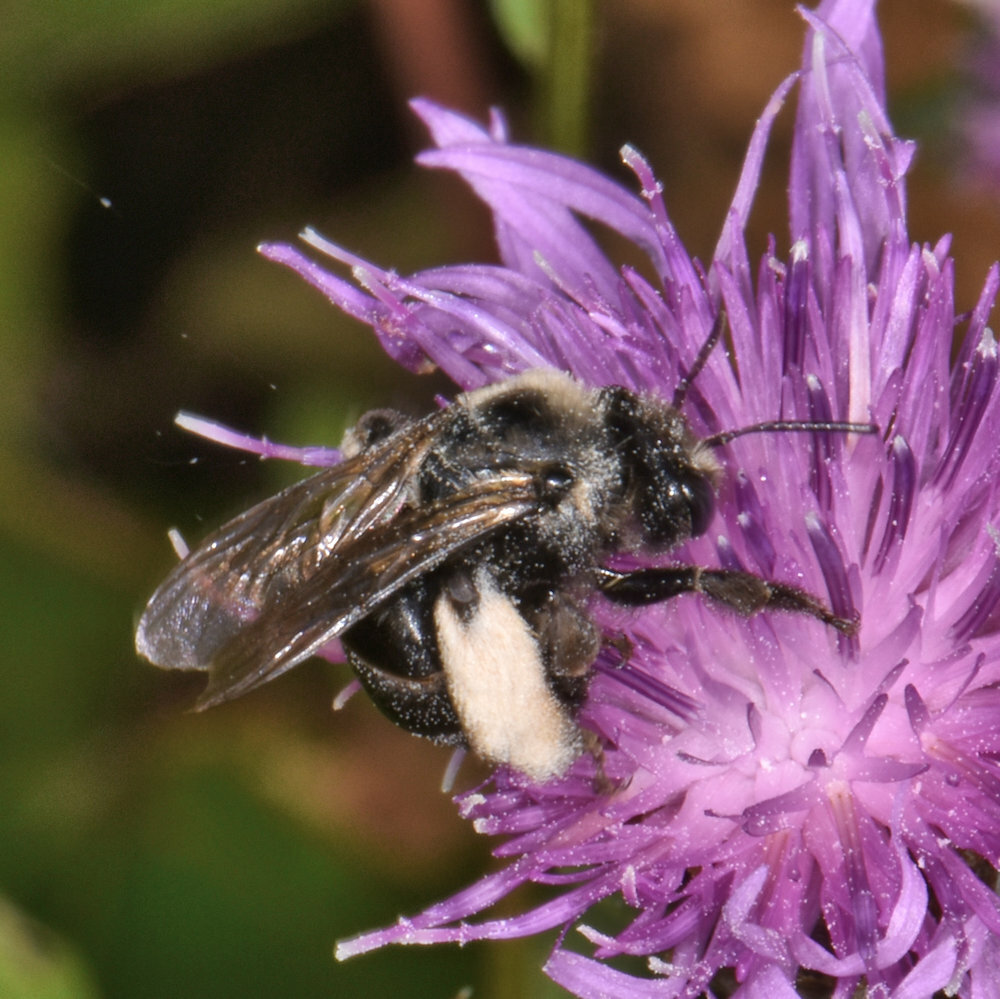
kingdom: Animalia
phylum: Arthropoda
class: Insecta
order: Hymenoptera
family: Apidae
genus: Melissodes
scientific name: Melissodes desponsus
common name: Thistle long-horned bee
